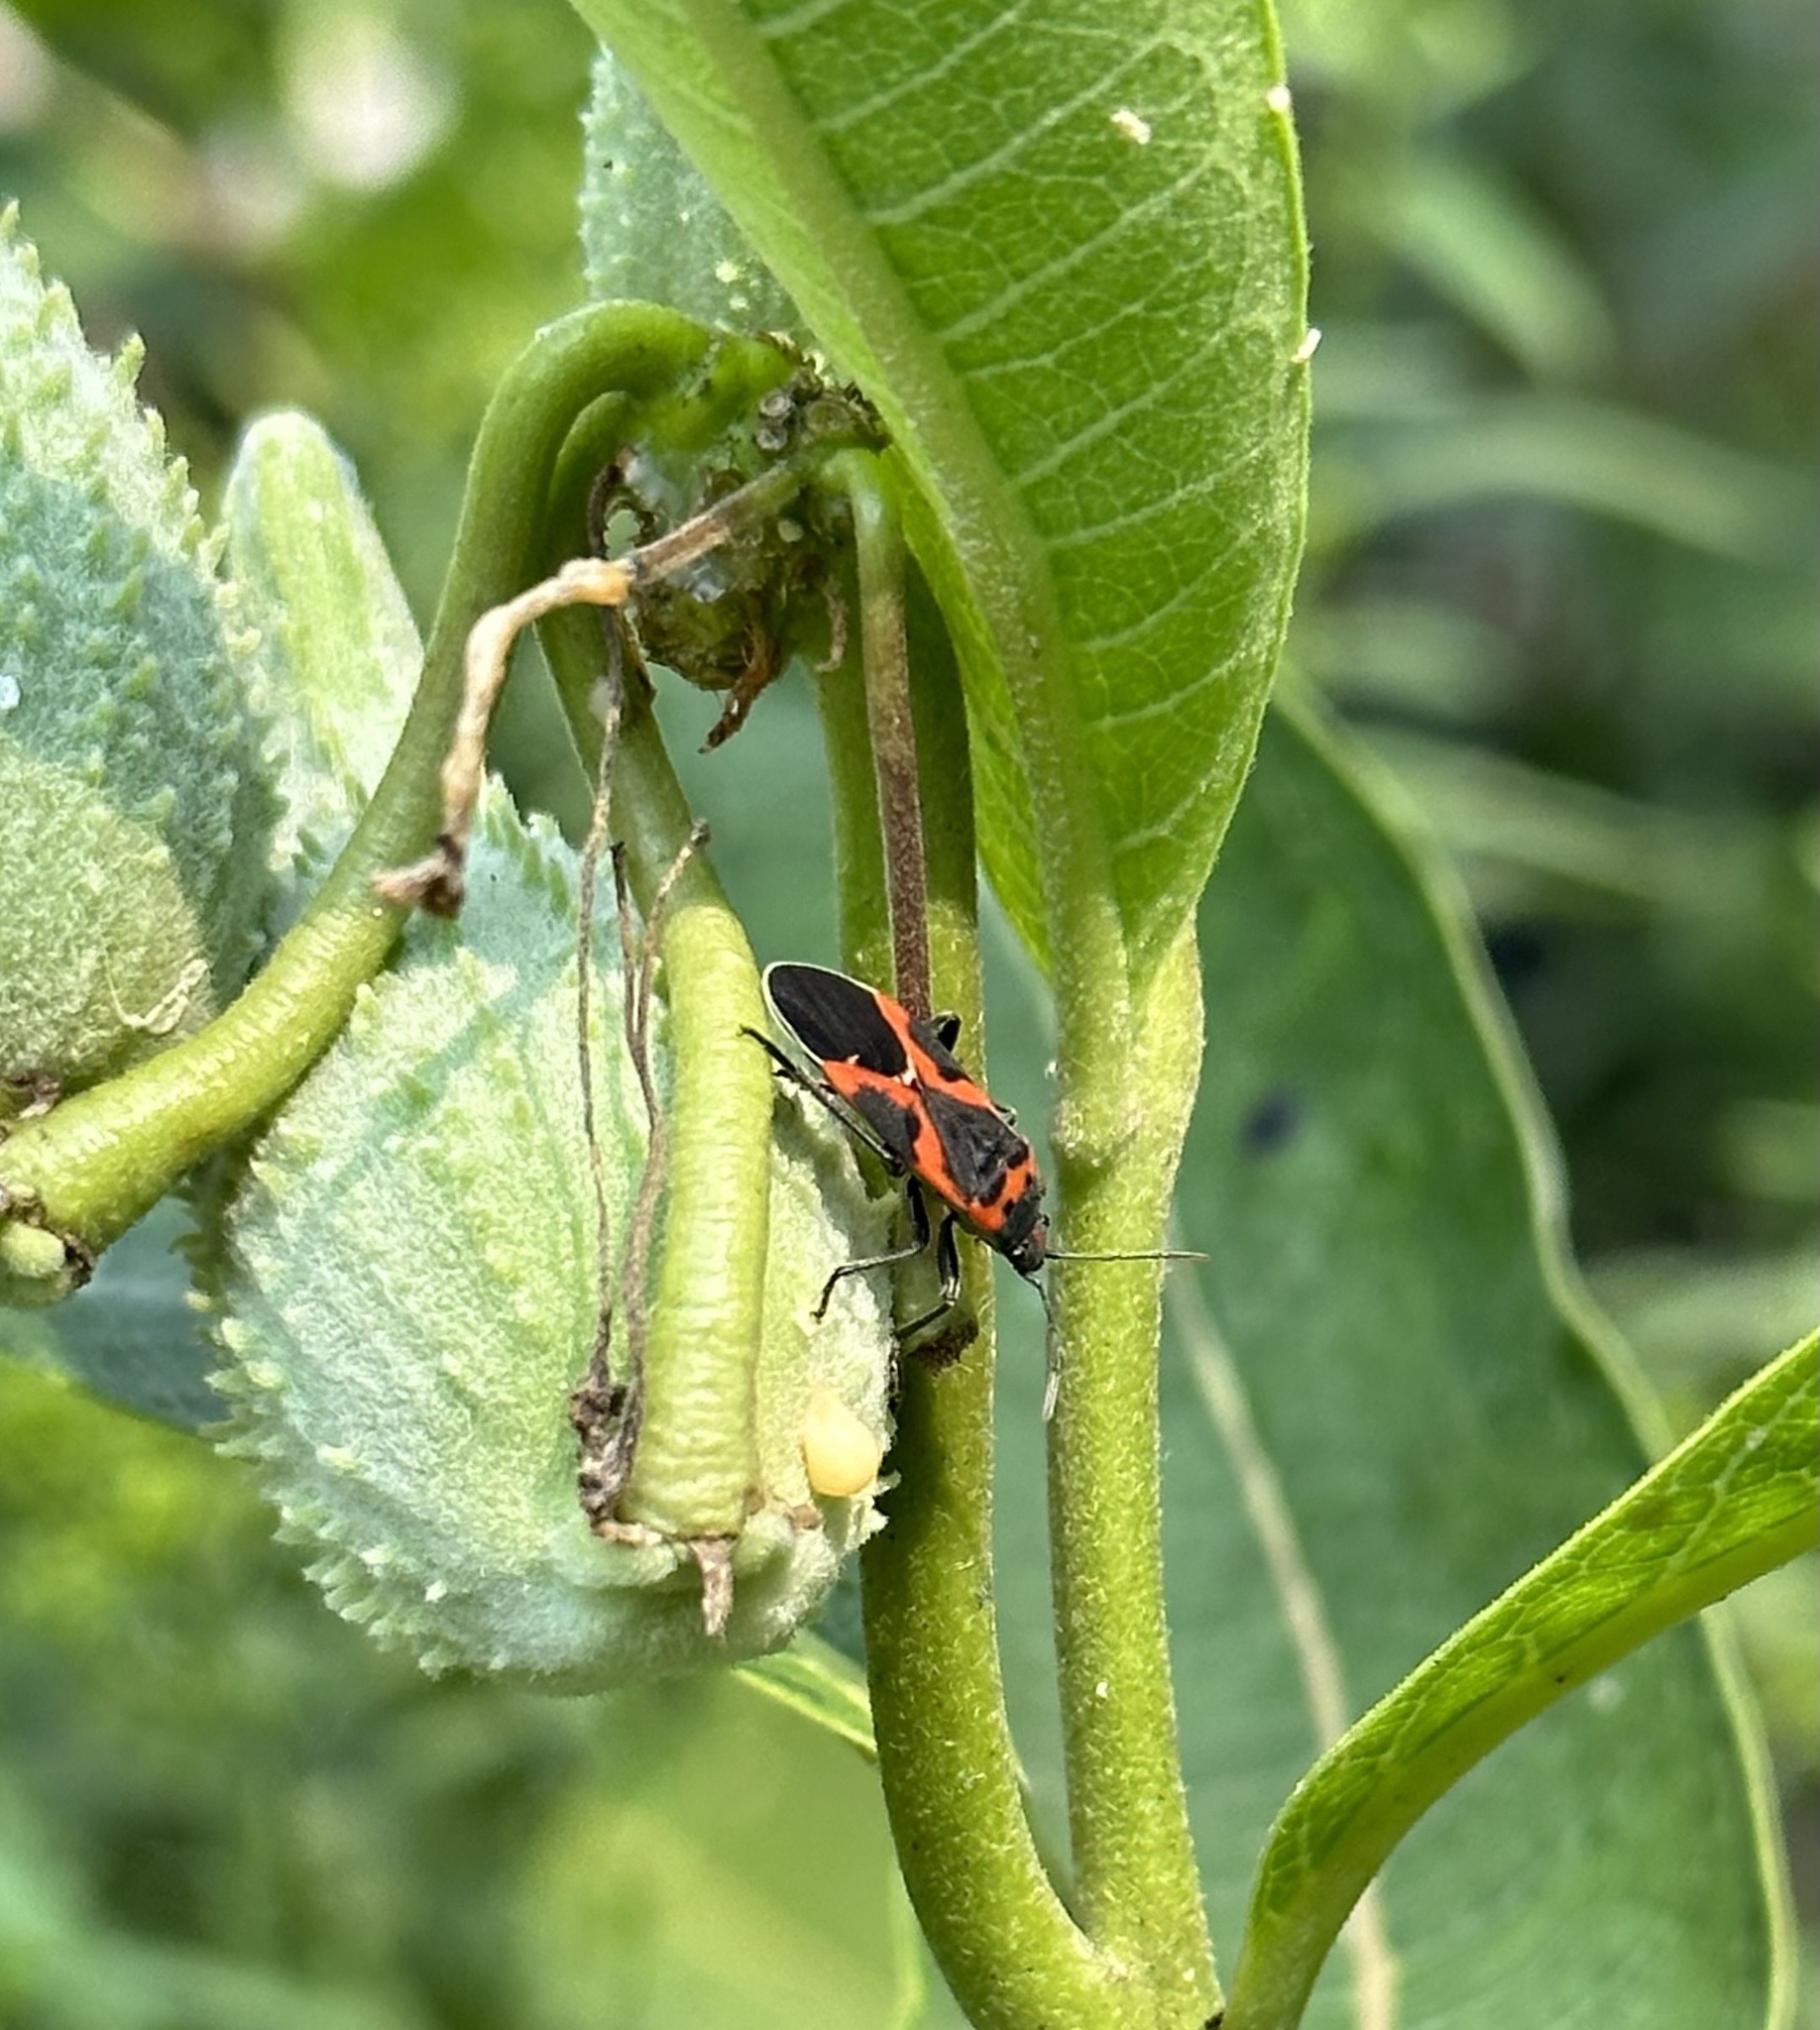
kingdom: Animalia
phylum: Arthropoda
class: Insecta
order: Hemiptera
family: Lygaeidae
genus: Lygaeus
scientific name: Lygaeus kalmii
